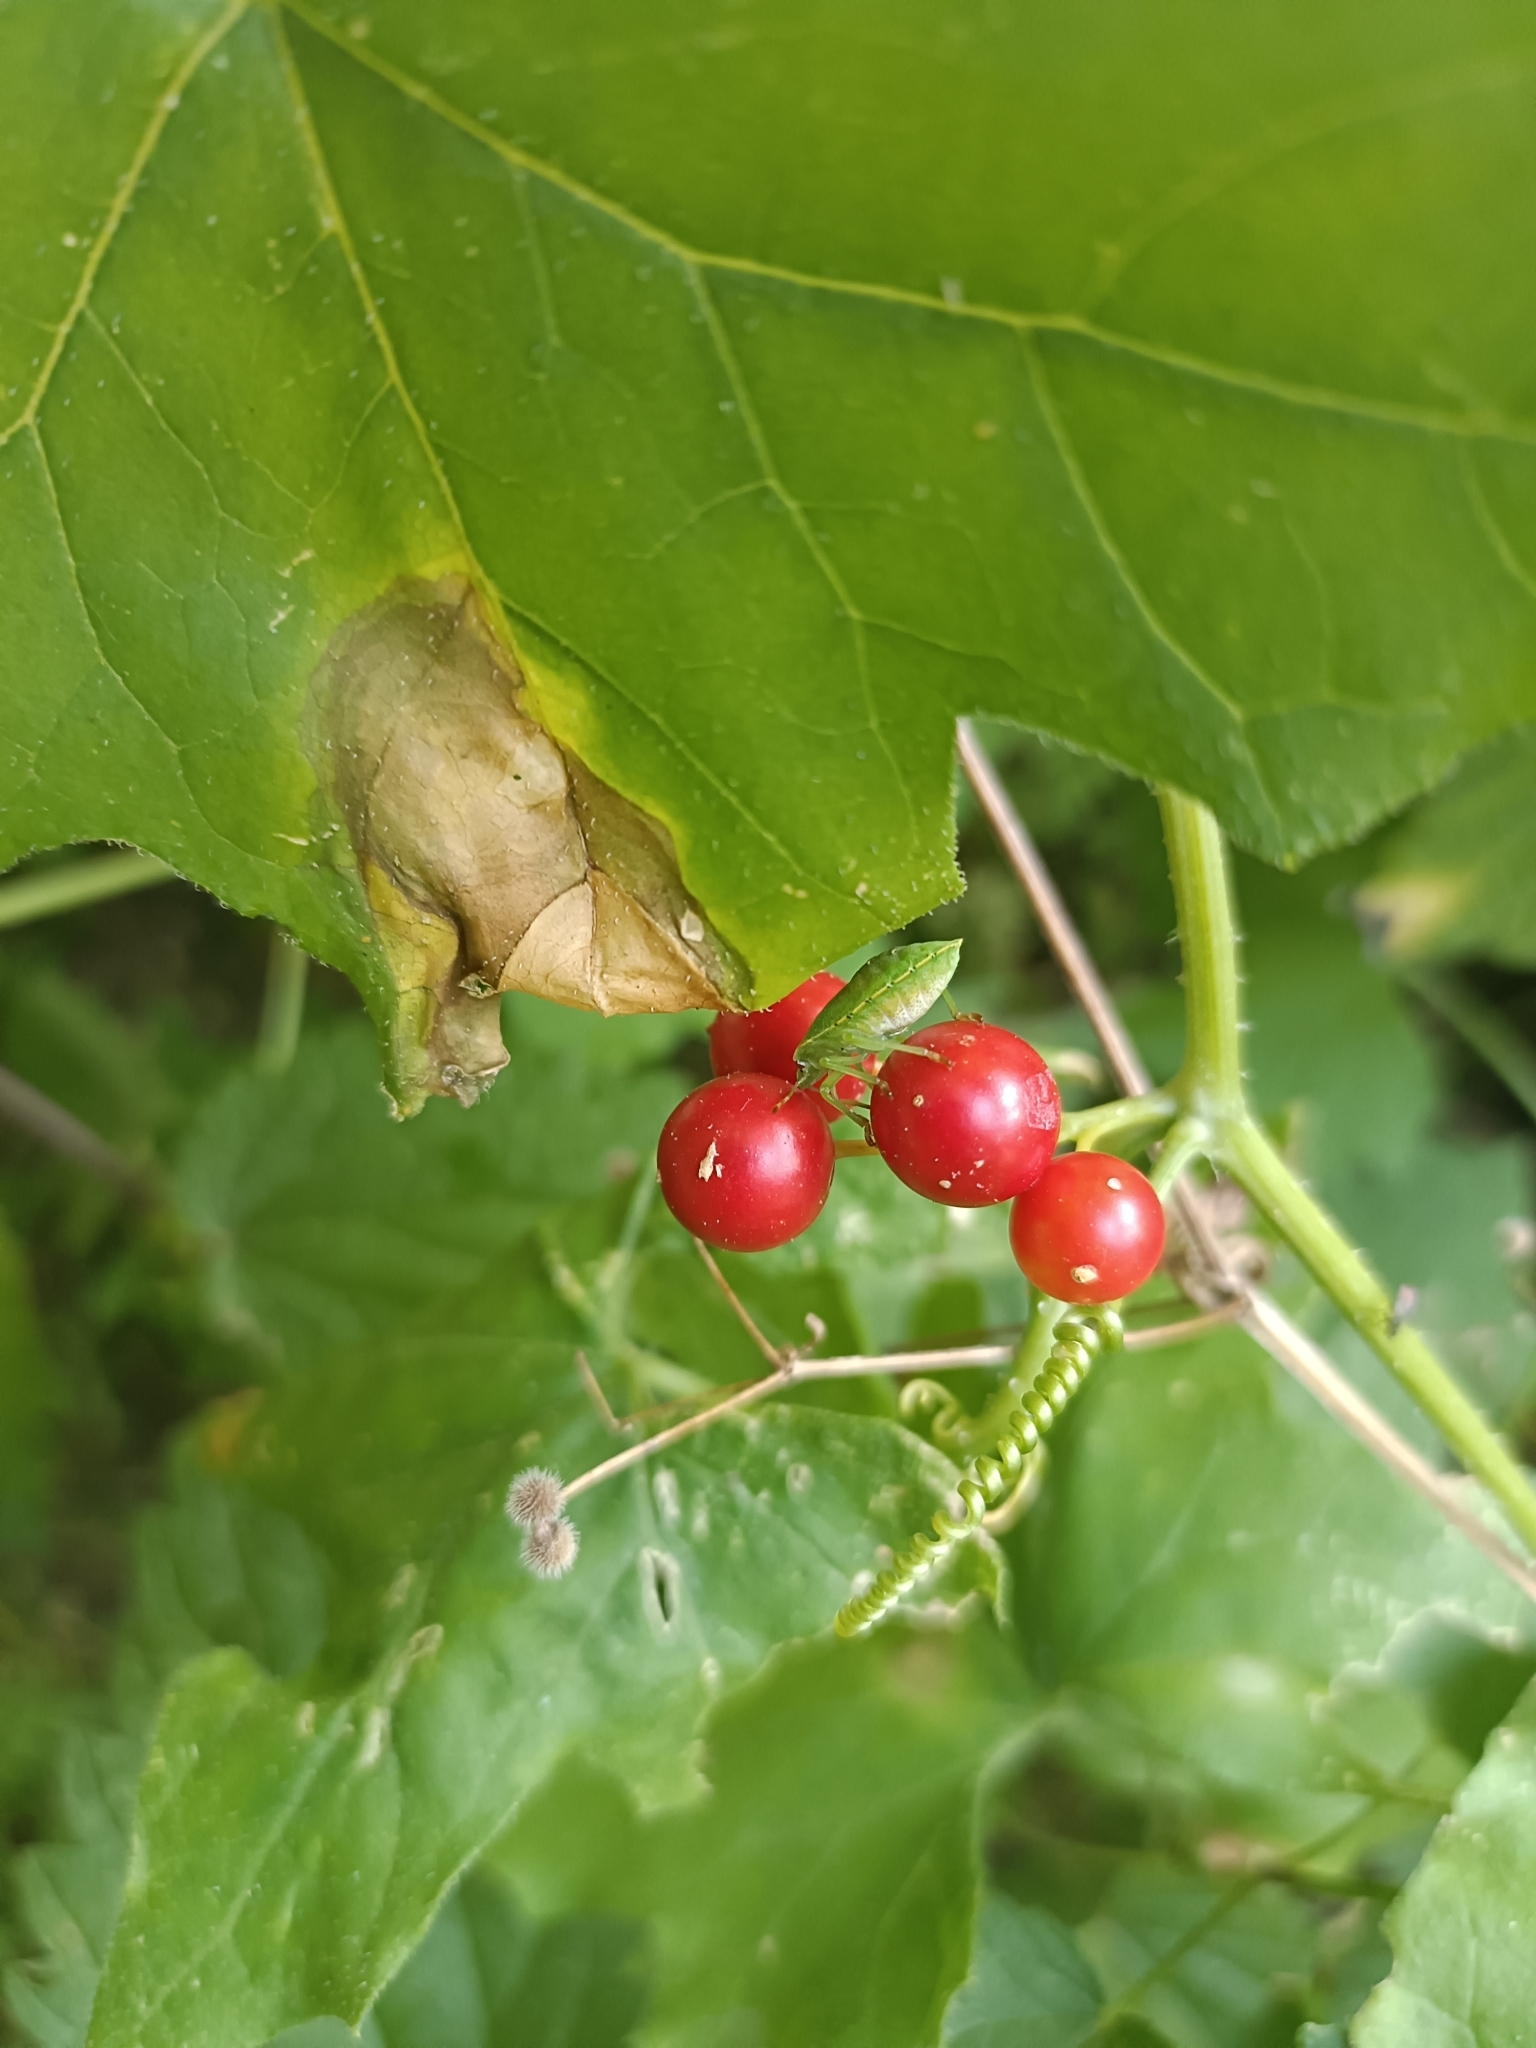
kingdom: Plantae
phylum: Tracheophyta
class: Magnoliopsida
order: Cucurbitales
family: Cucurbitaceae
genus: Bryonia
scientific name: Bryonia cretica
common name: Cretan bryony
